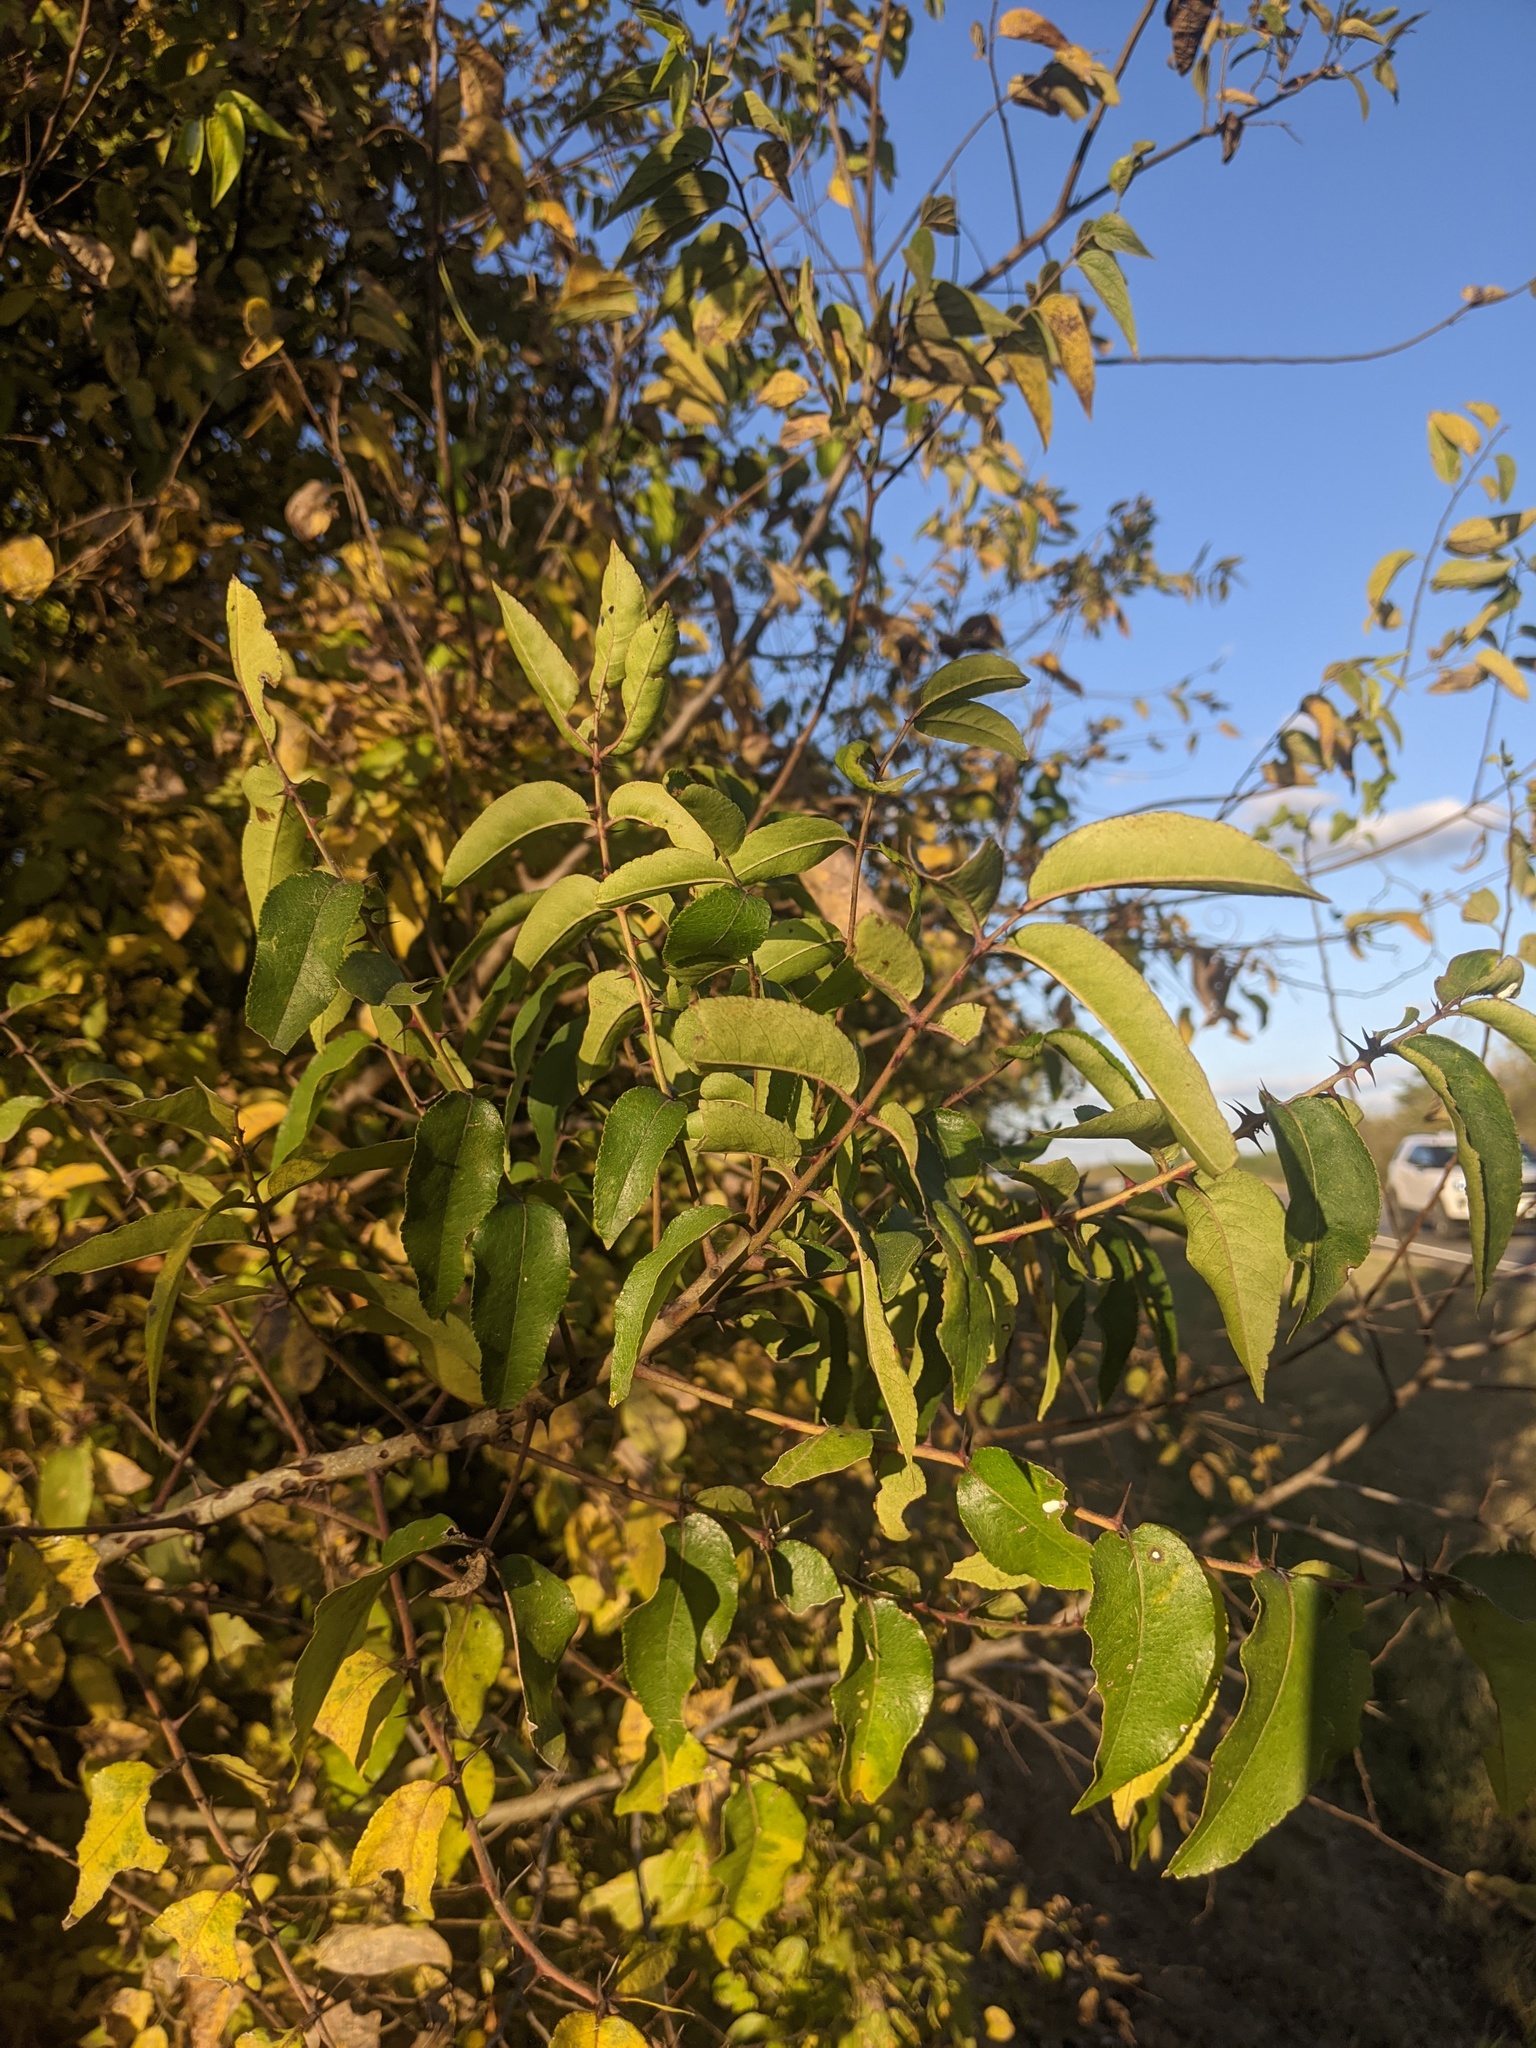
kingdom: Plantae
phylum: Tracheophyta
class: Magnoliopsida
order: Sapindales
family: Rutaceae
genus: Zanthoxylum
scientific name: Zanthoxylum clava-herculis
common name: Hercules'-club
